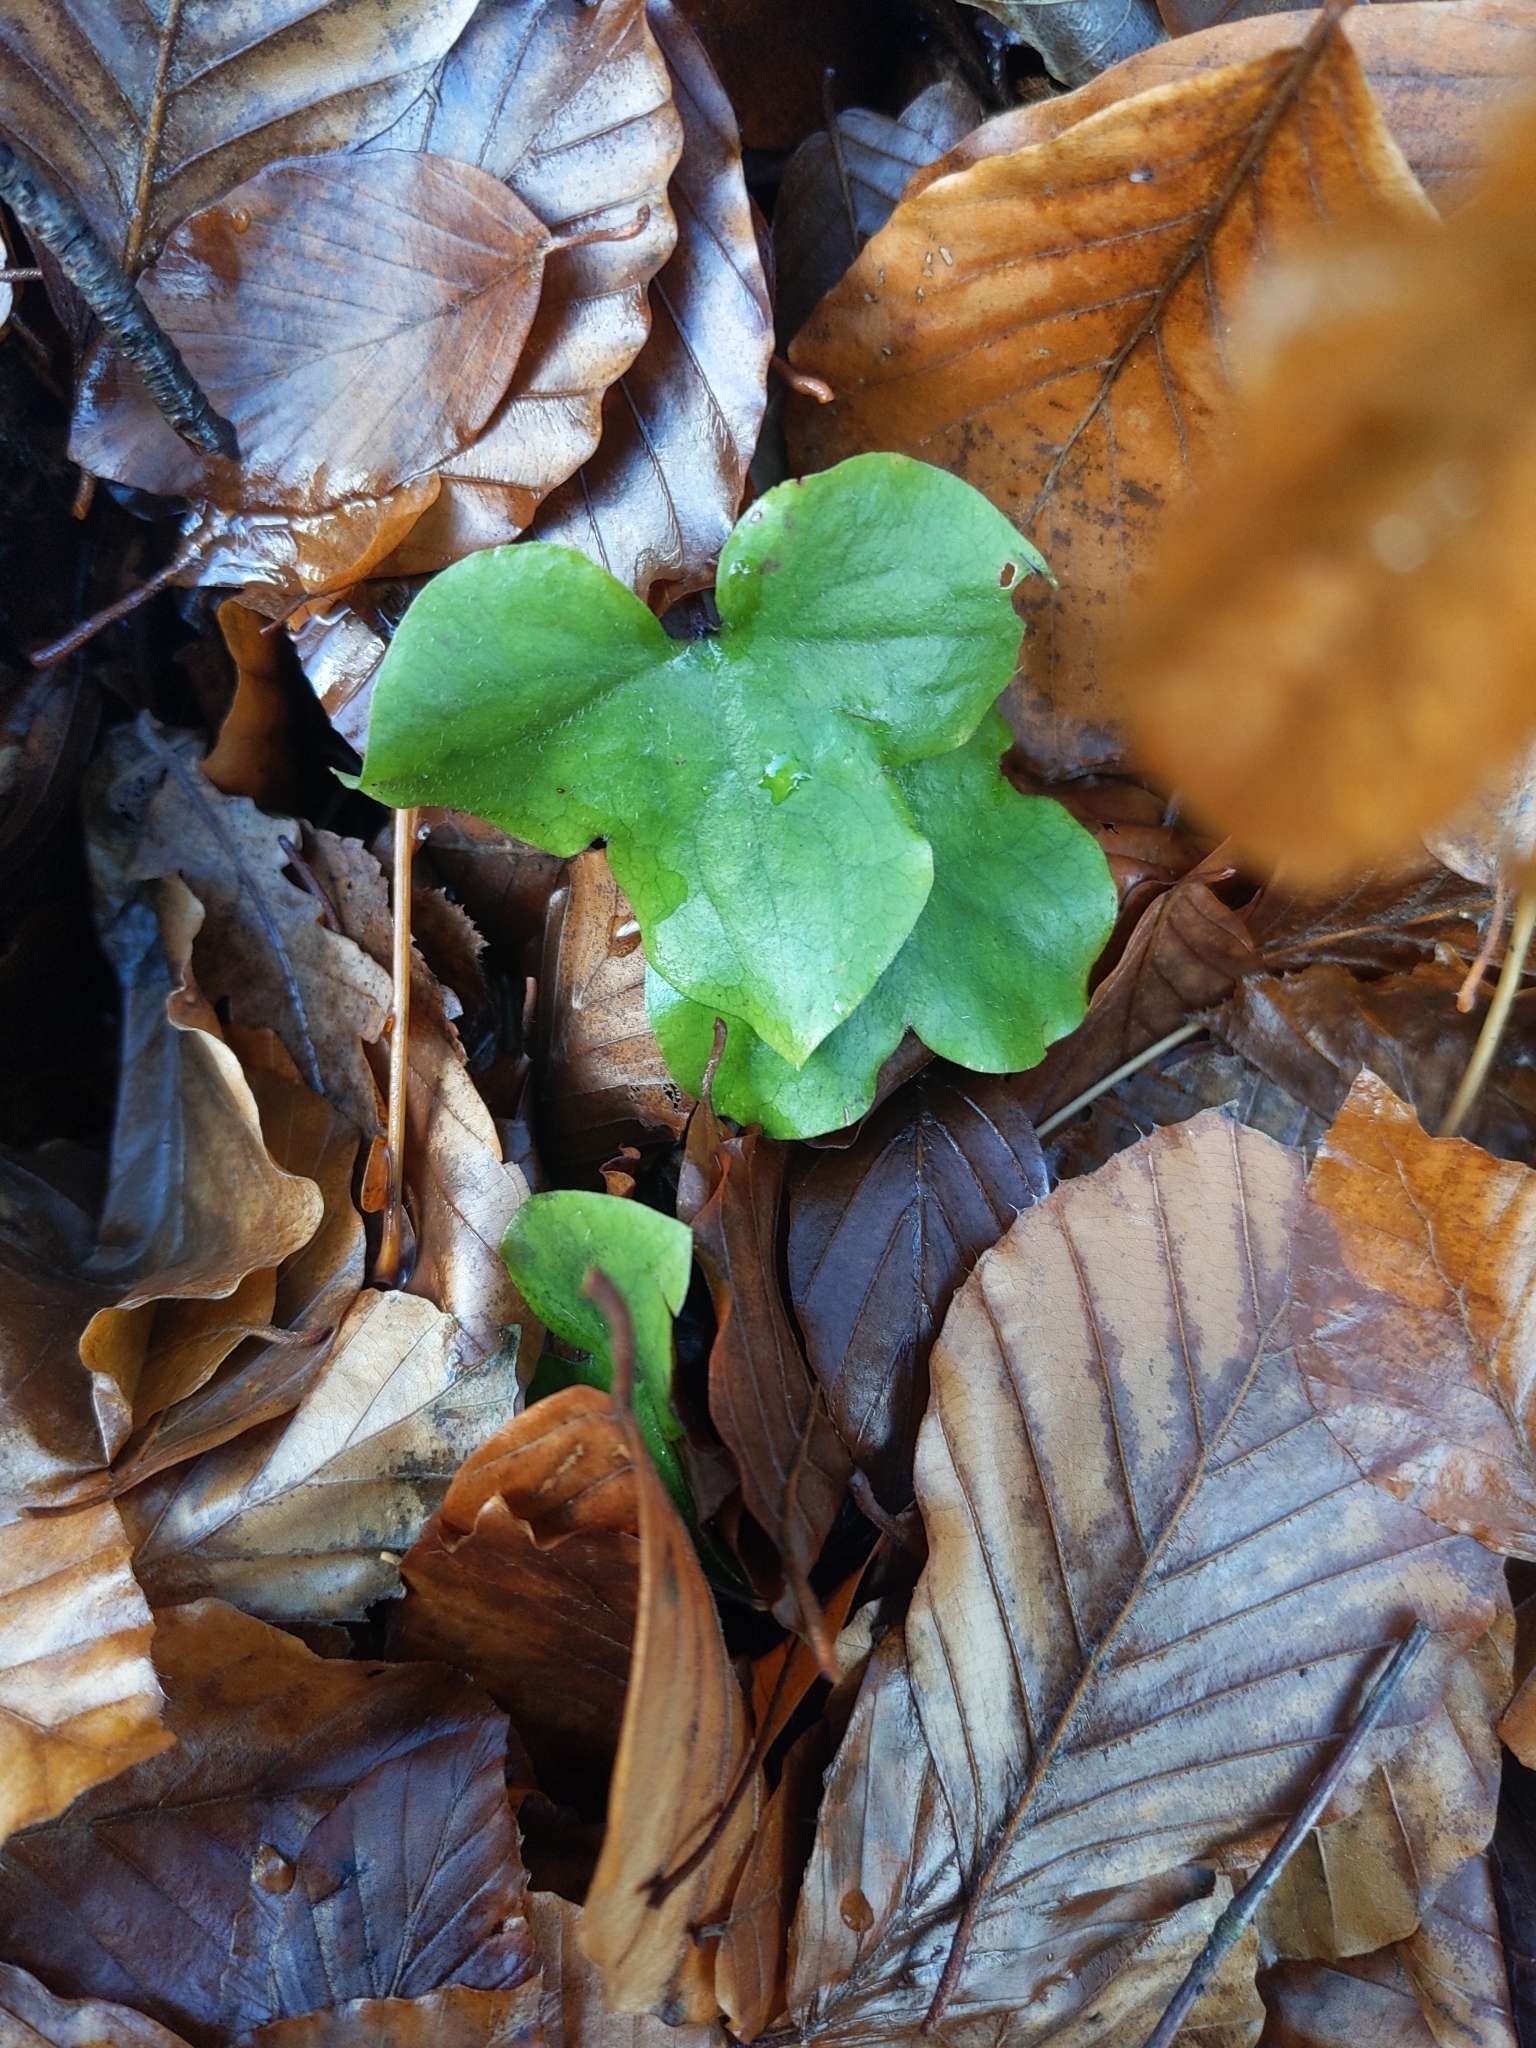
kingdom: Plantae
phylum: Tracheophyta
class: Magnoliopsida
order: Ranunculales
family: Ranunculaceae
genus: Hepatica
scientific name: Hepatica nobilis
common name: Liverleaf
